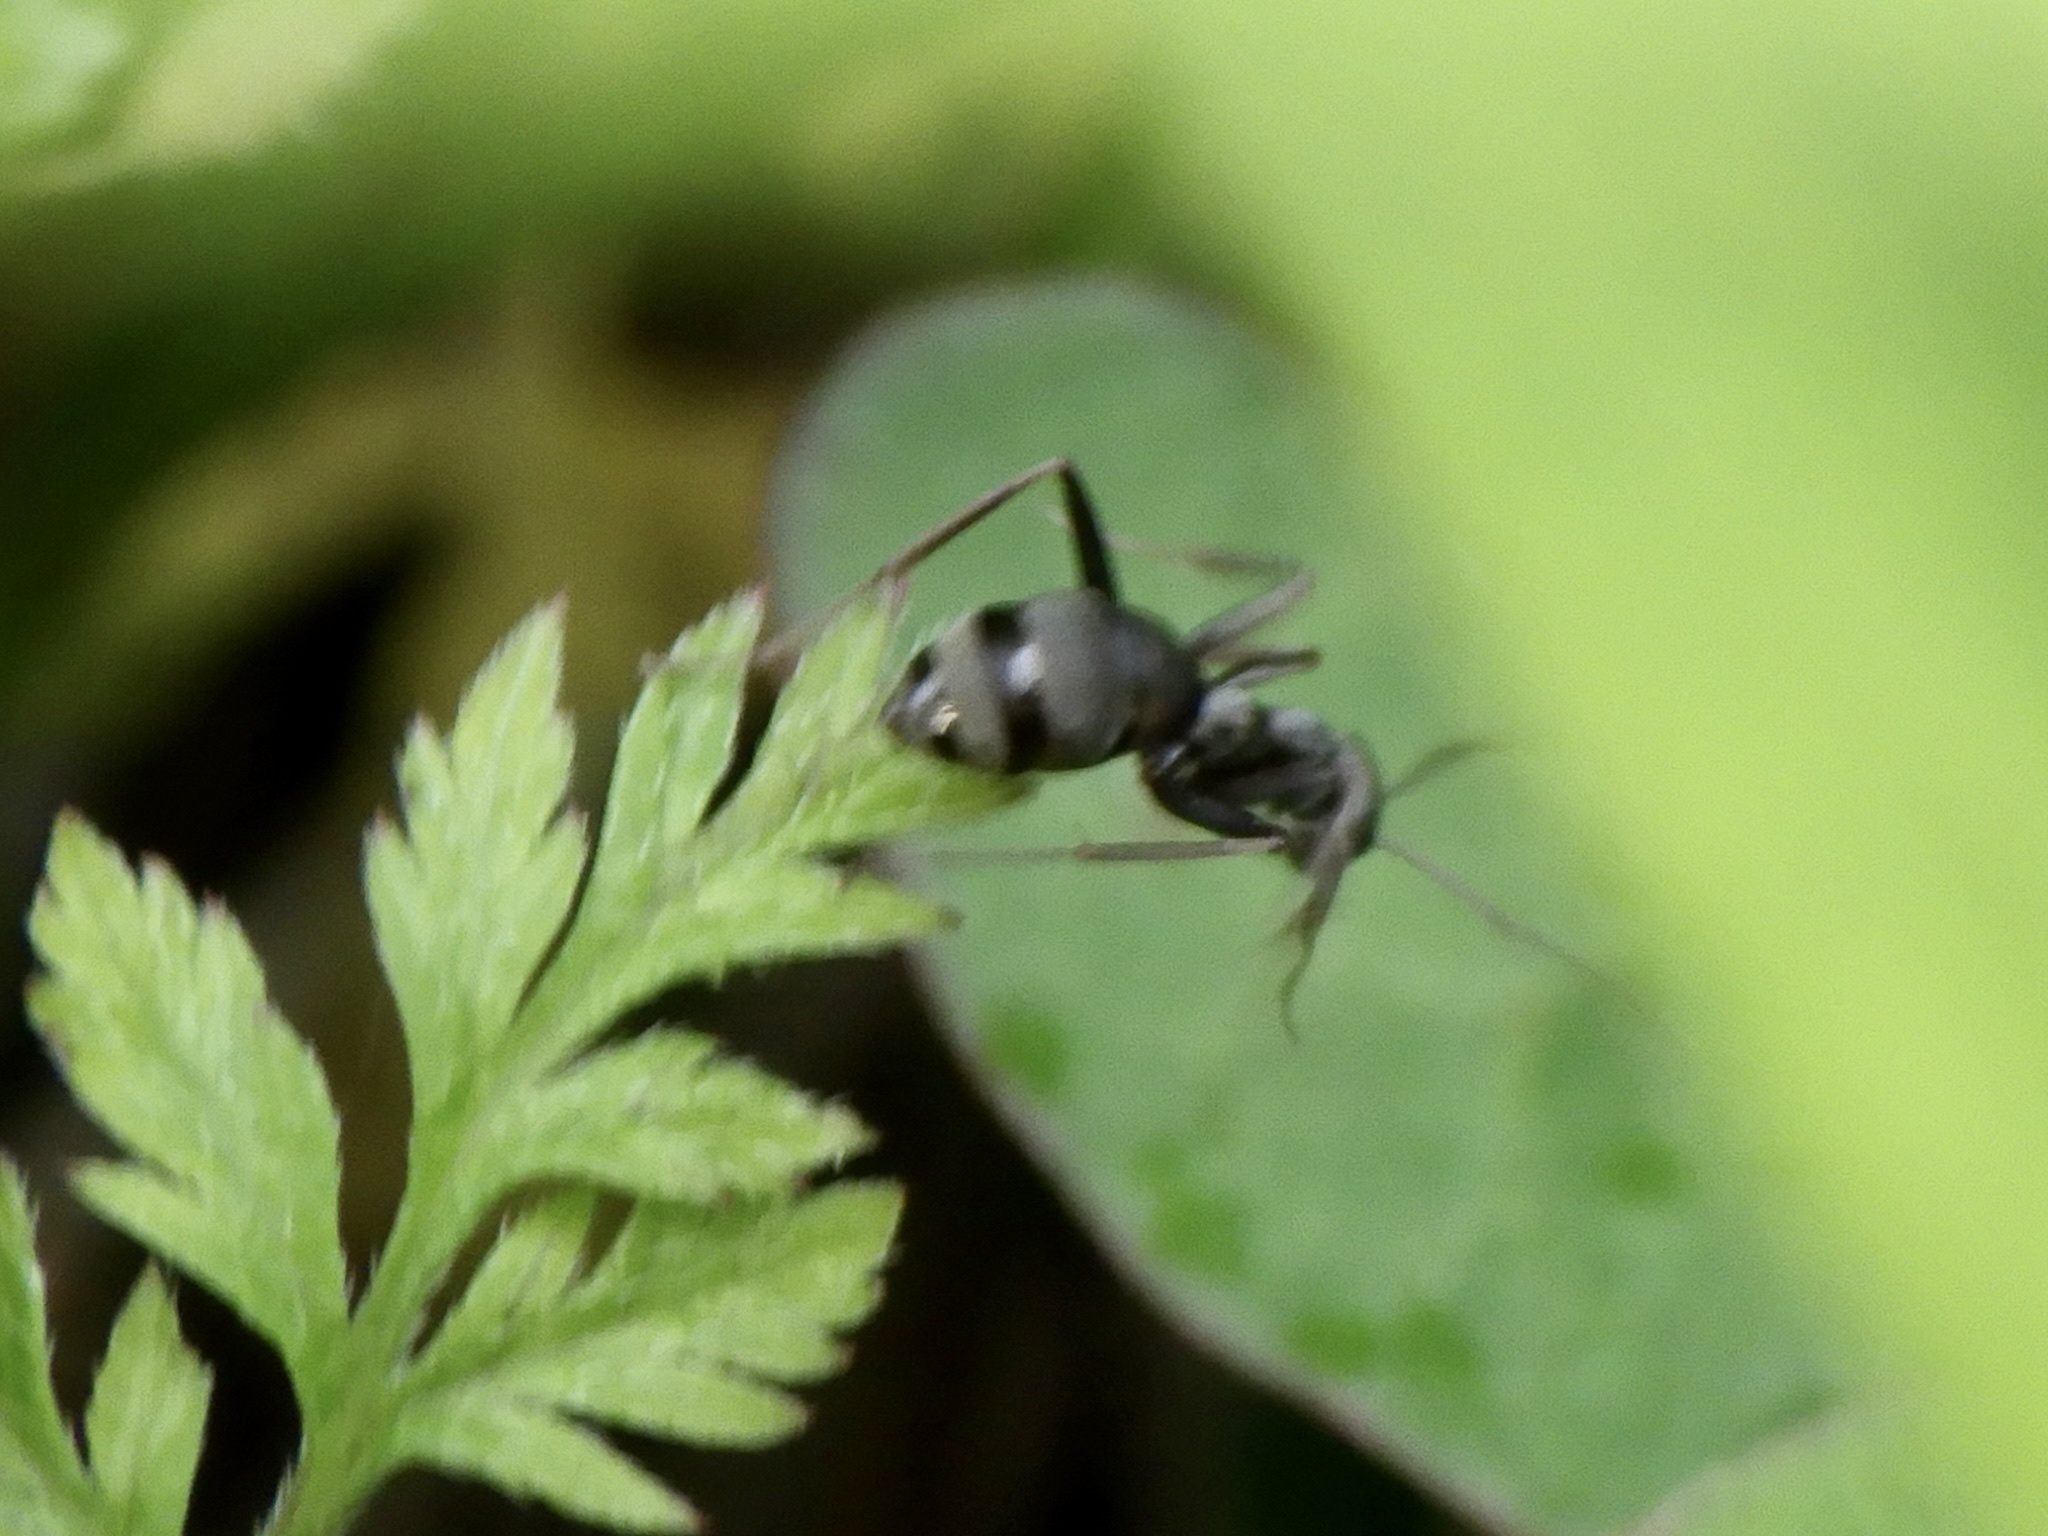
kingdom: Animalia
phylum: Arthropoda
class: Insecta
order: Hymenoptera
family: Formicidae
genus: Formica
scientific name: Formica japonica
